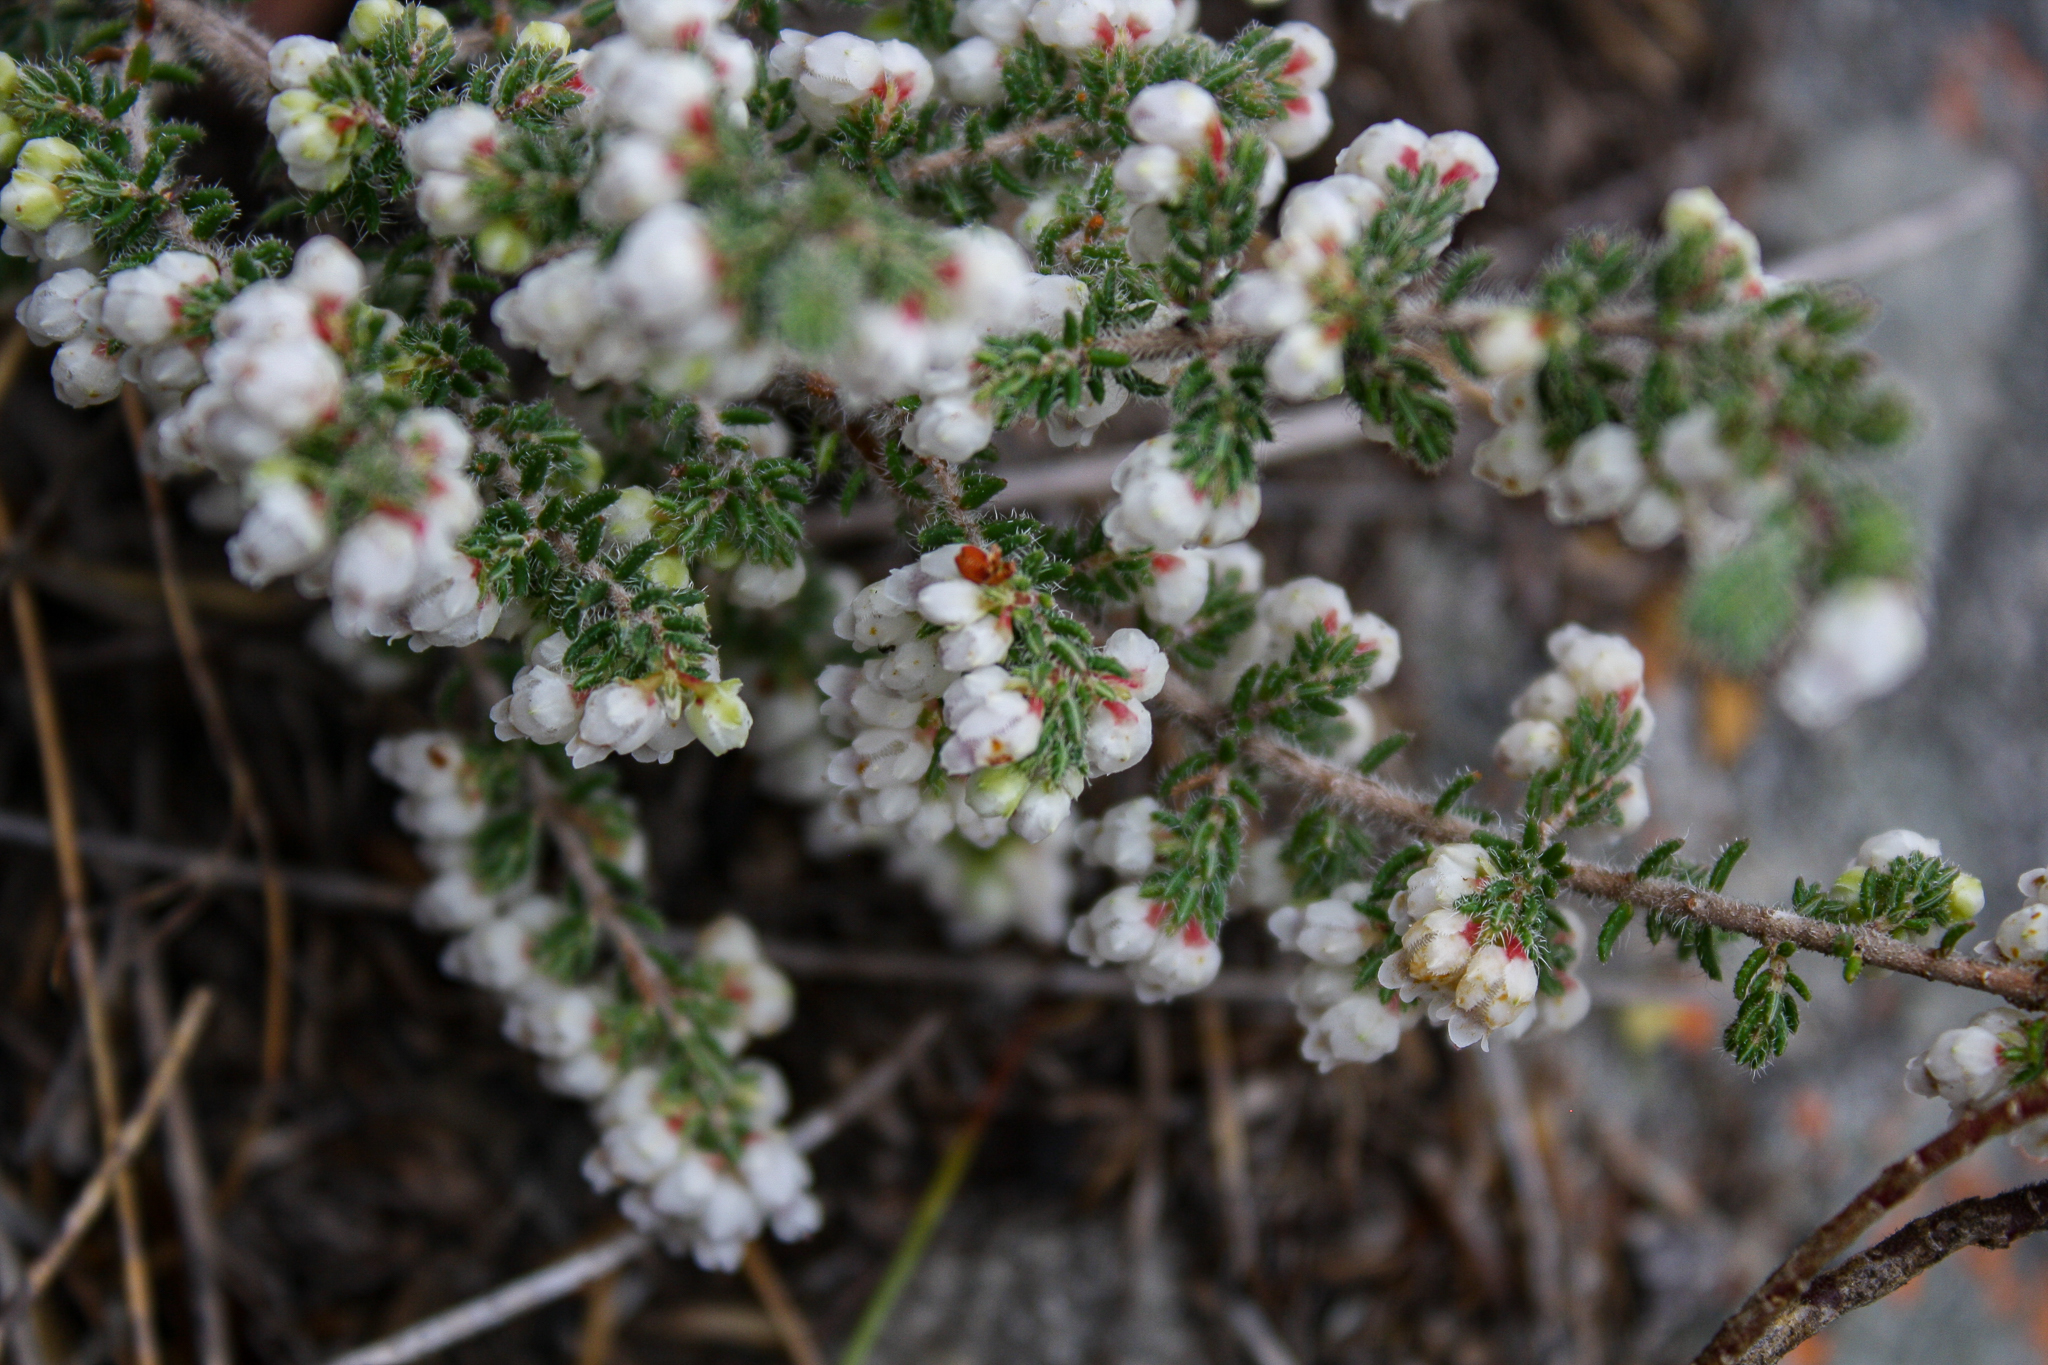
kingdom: Plantae
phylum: Tracheophyta
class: Magnoliopsida
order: Ericales
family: Ericaceae
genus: Erica
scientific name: Erica totta
